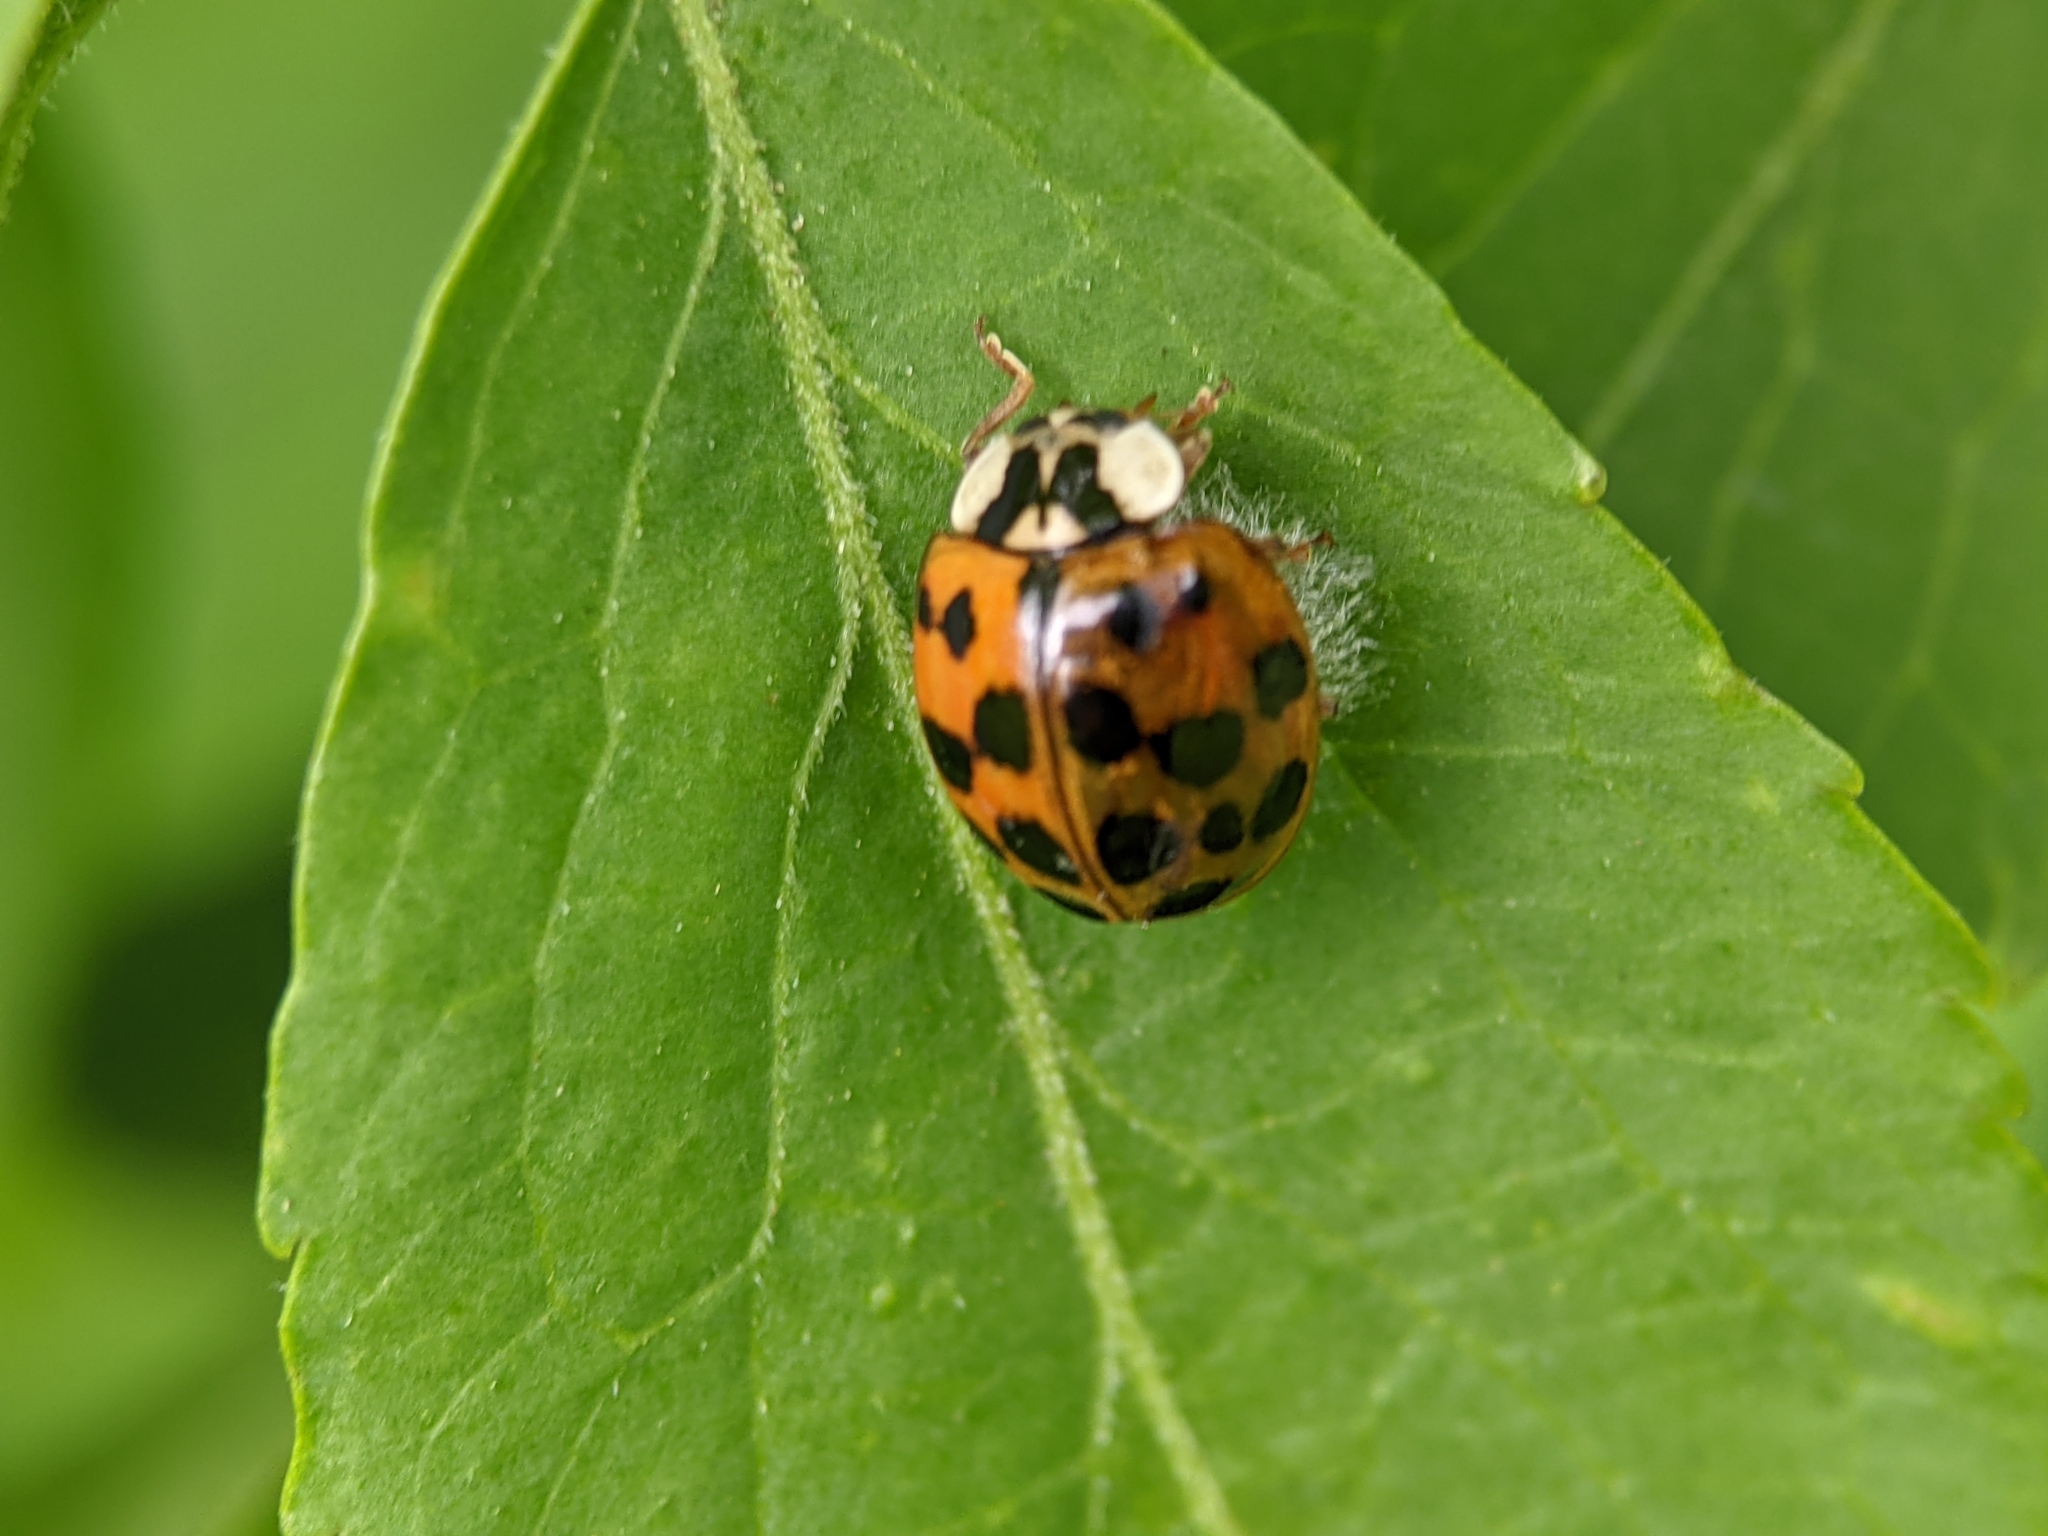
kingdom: Viruses
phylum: Pisuviricota
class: Pisoniviricetes
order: Picornavirales
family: Iflaviridae
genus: Iflavirus
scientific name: Iflavirus dinococcinellae
